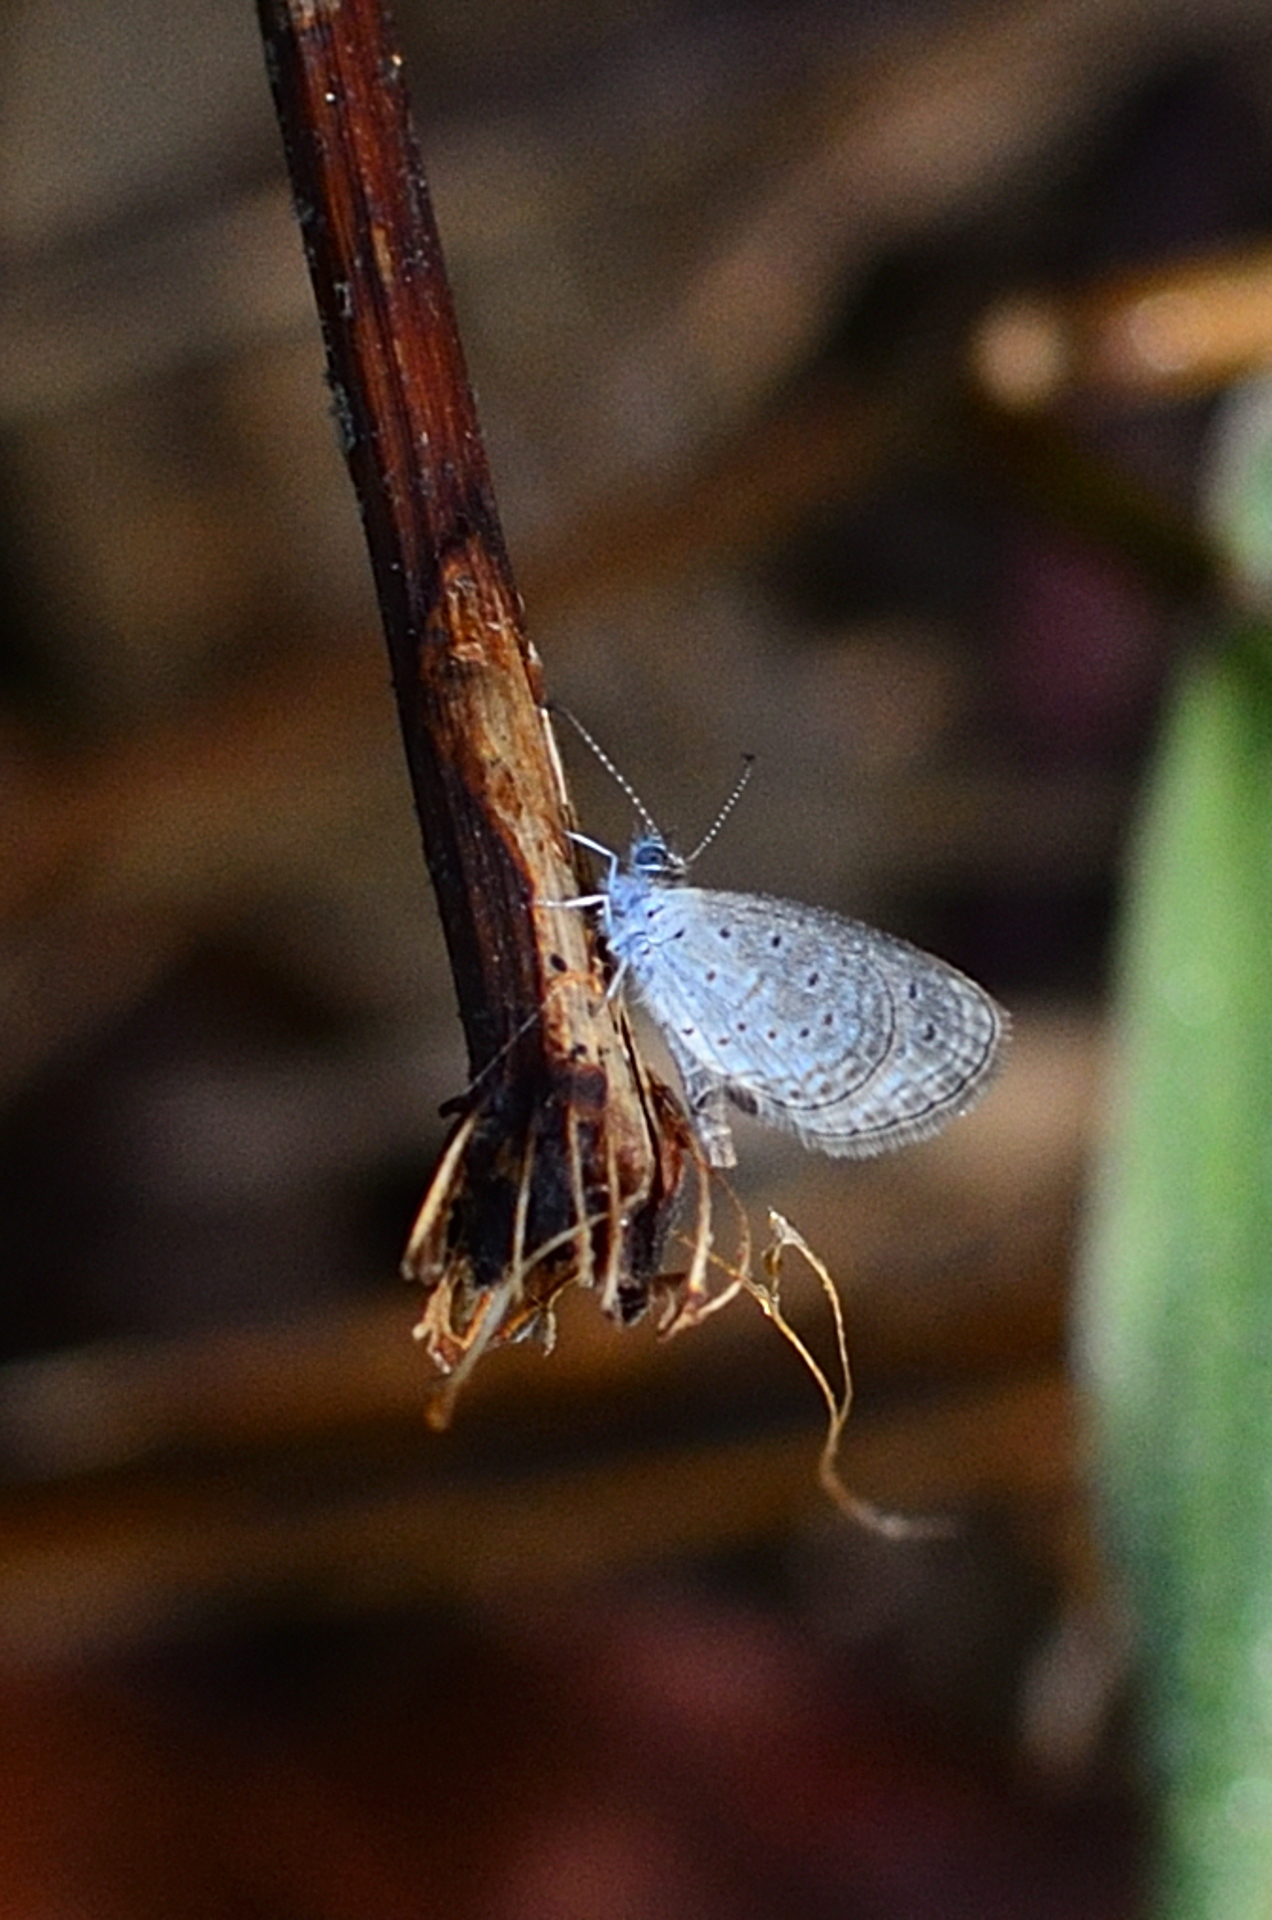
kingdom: Animalia
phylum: Arthropoda
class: Insecta
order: Lepidoptera
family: Lycaenidae
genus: Zizula
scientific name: Zizula hylax
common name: Gaika blue
